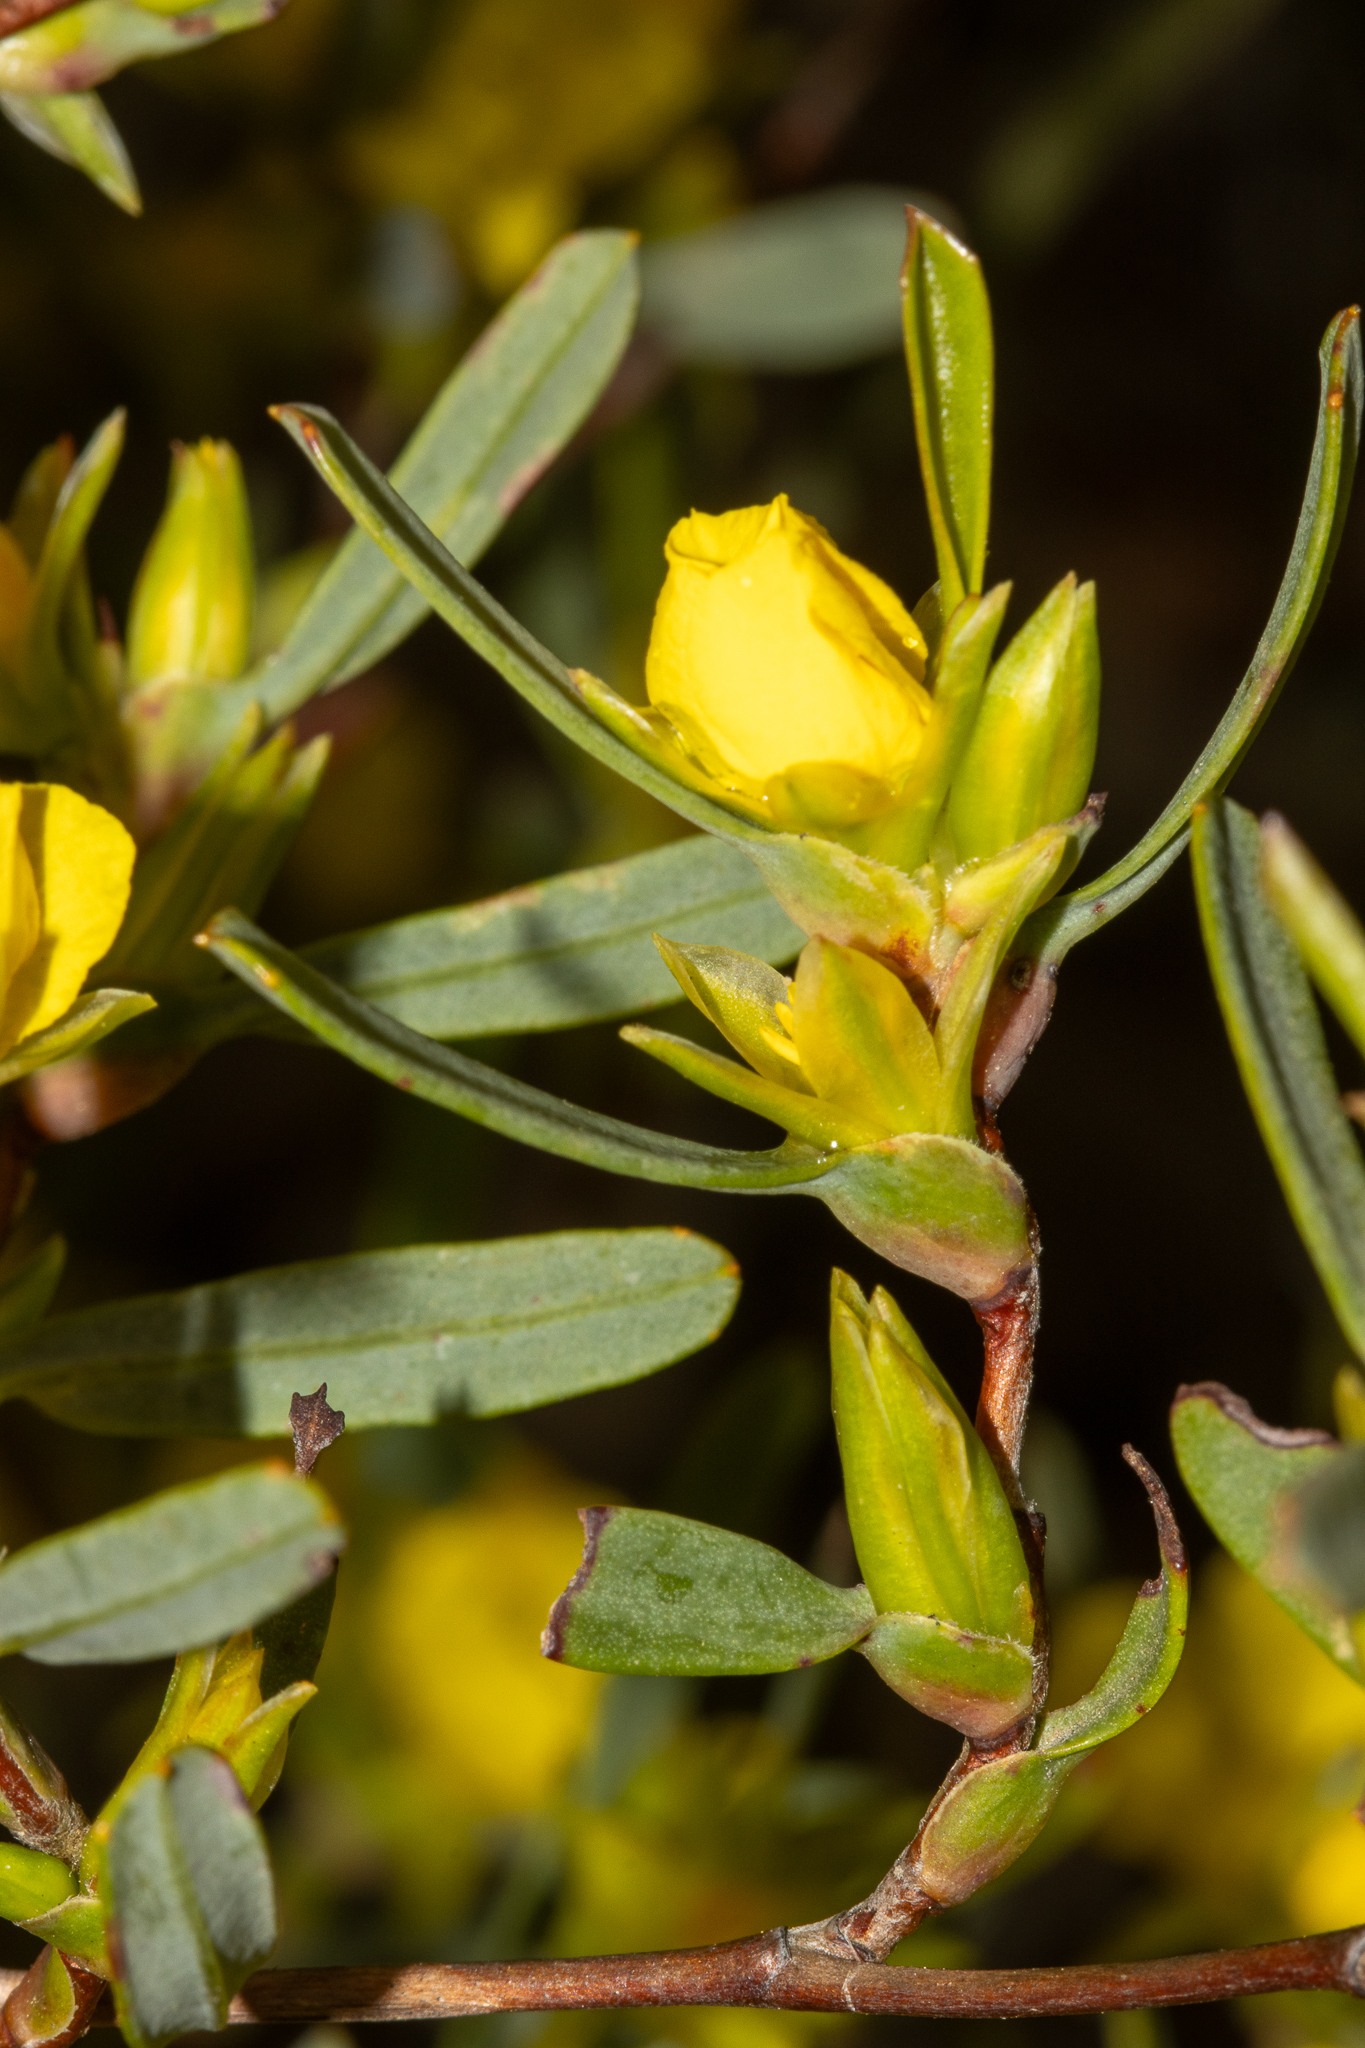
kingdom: Plantae
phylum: Tracheophyta
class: Magnoliopsida
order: Dilleniales
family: Dilleniaceae
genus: Hibbertia
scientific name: Hibbertia subvaginata
